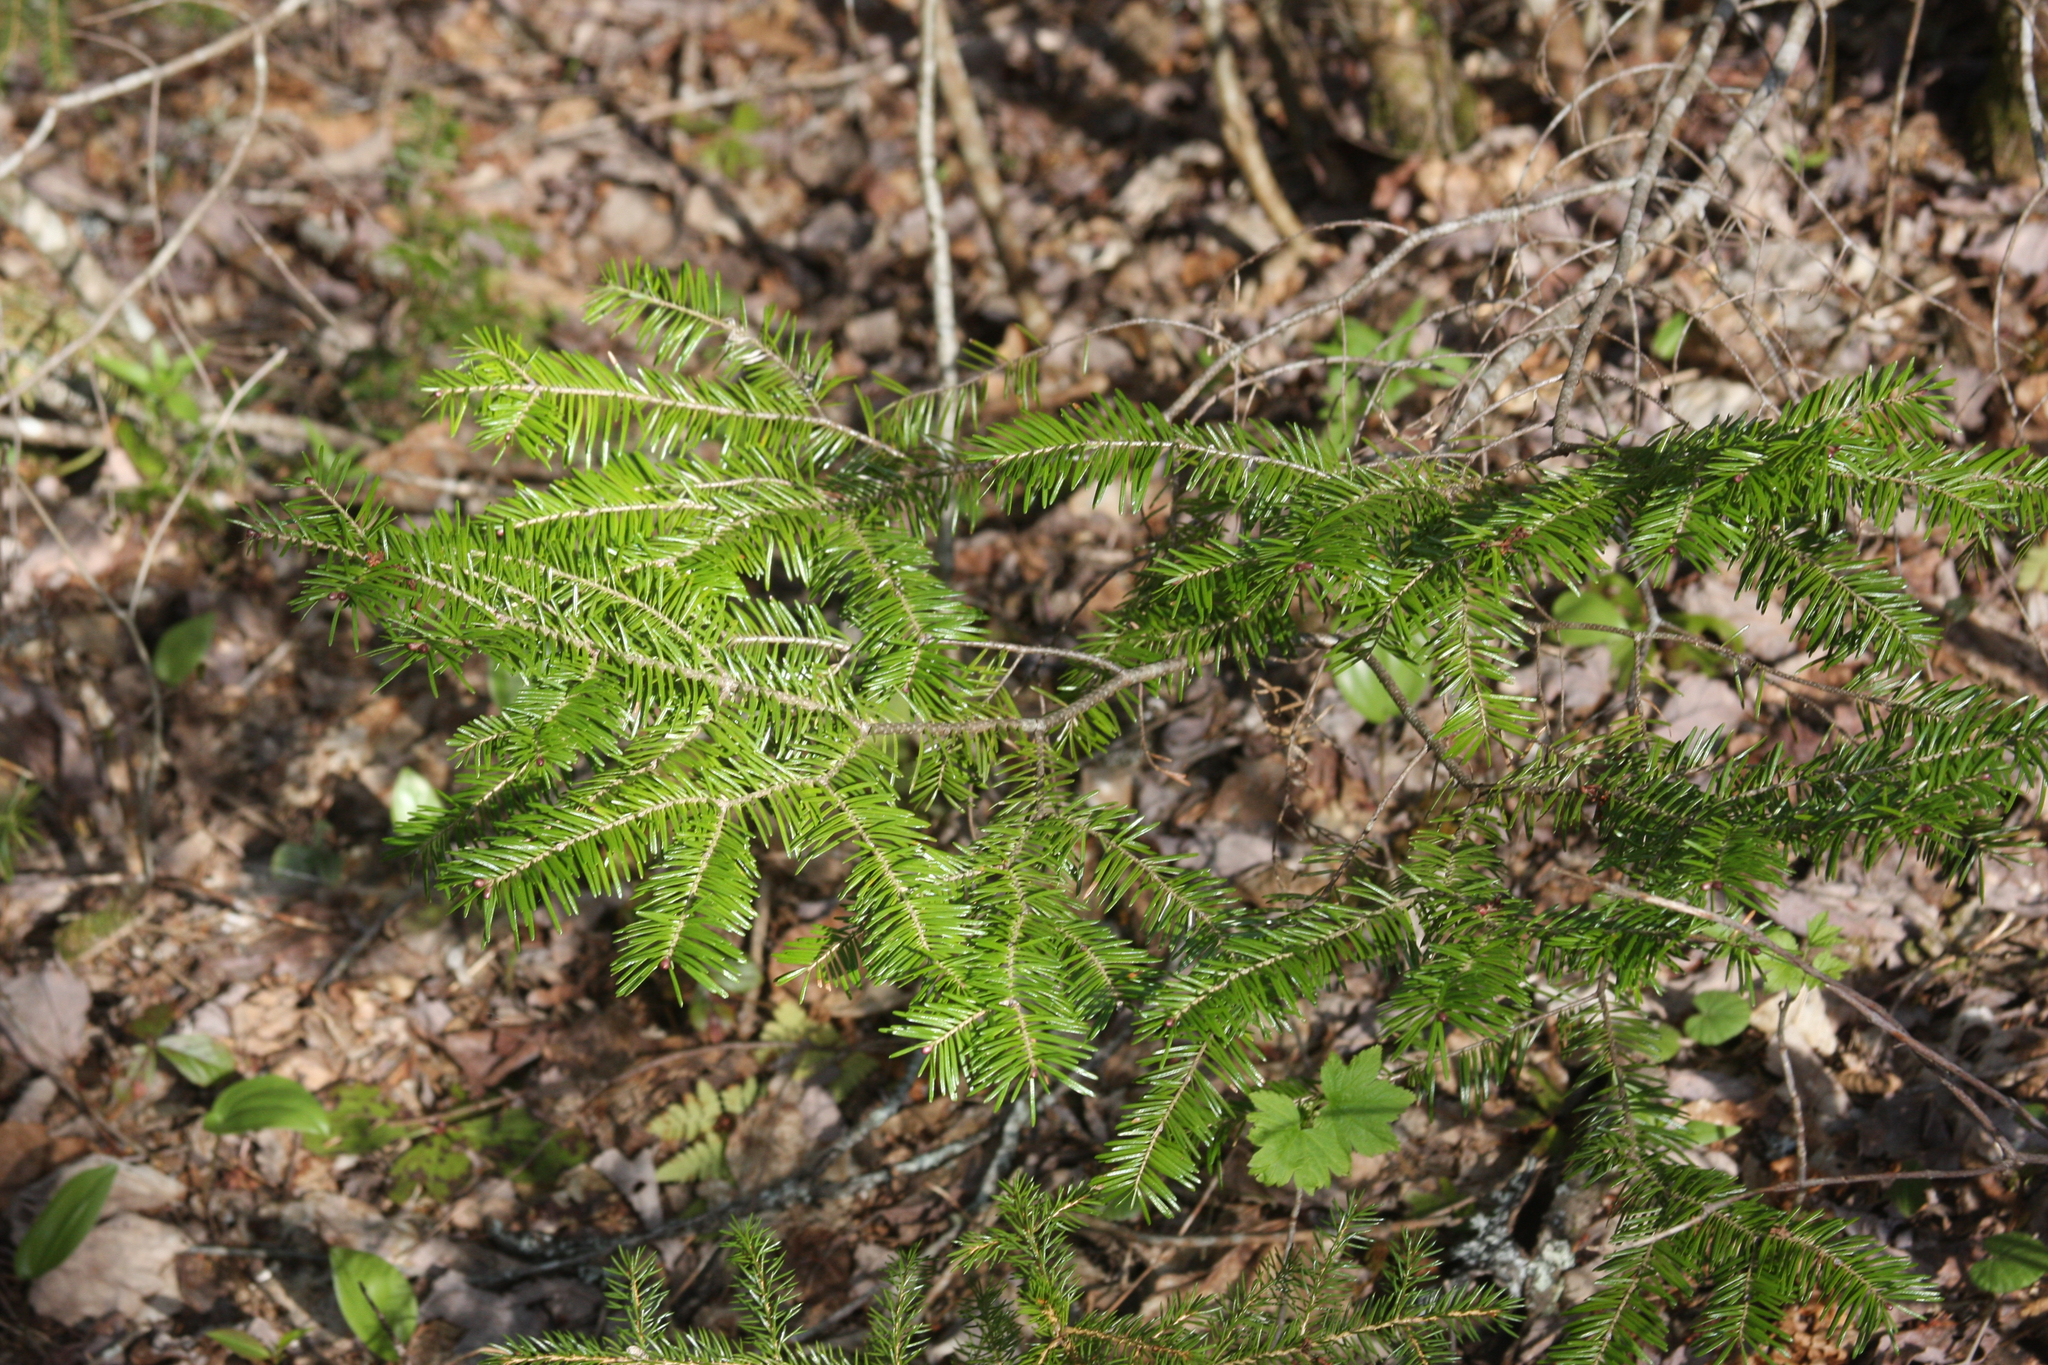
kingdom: Plantae
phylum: Tracheophyta
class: Pinopsida
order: Pinales
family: Pinaceae
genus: Abies
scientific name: Abies balsamea
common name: Balsam fir
